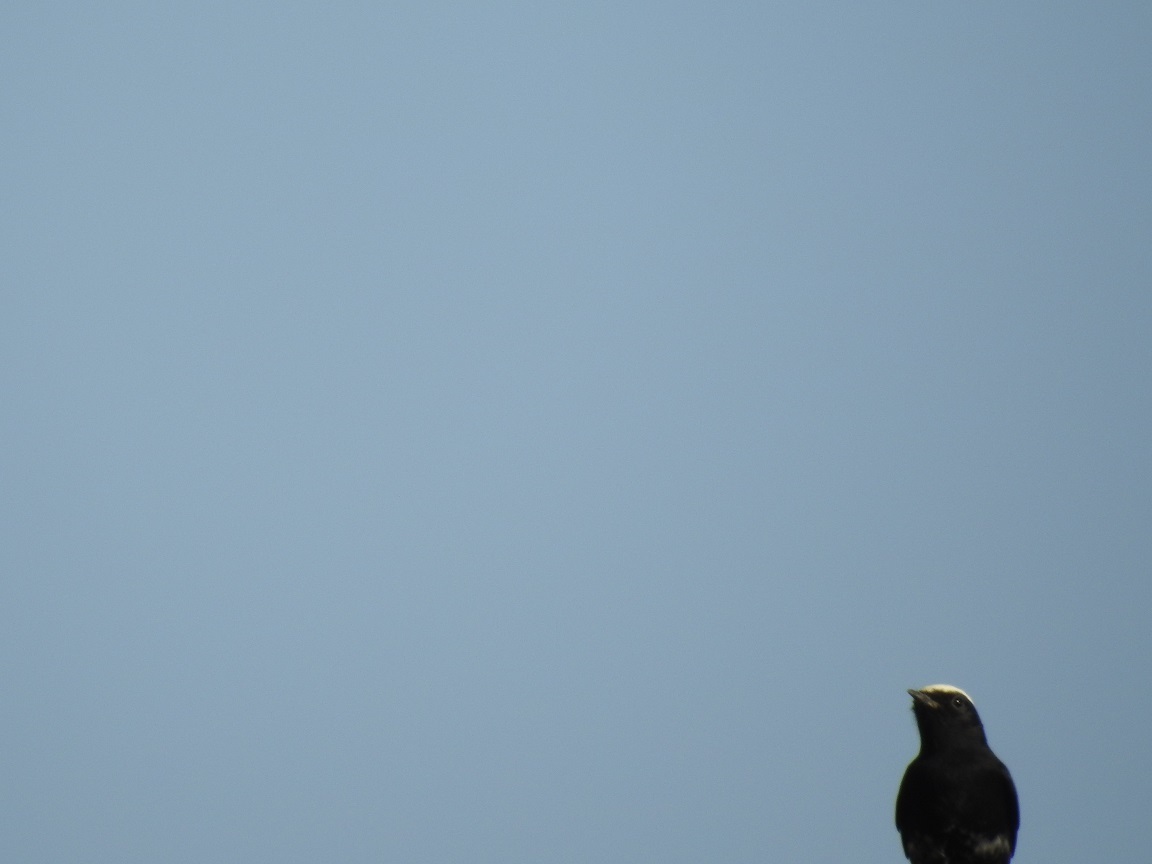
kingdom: Animalia
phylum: Chordata
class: Aves
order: Passeriformes
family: Muscicapidae
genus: Oenanthe
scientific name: Oenanthe leucopyga
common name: White-crowned wheatear
